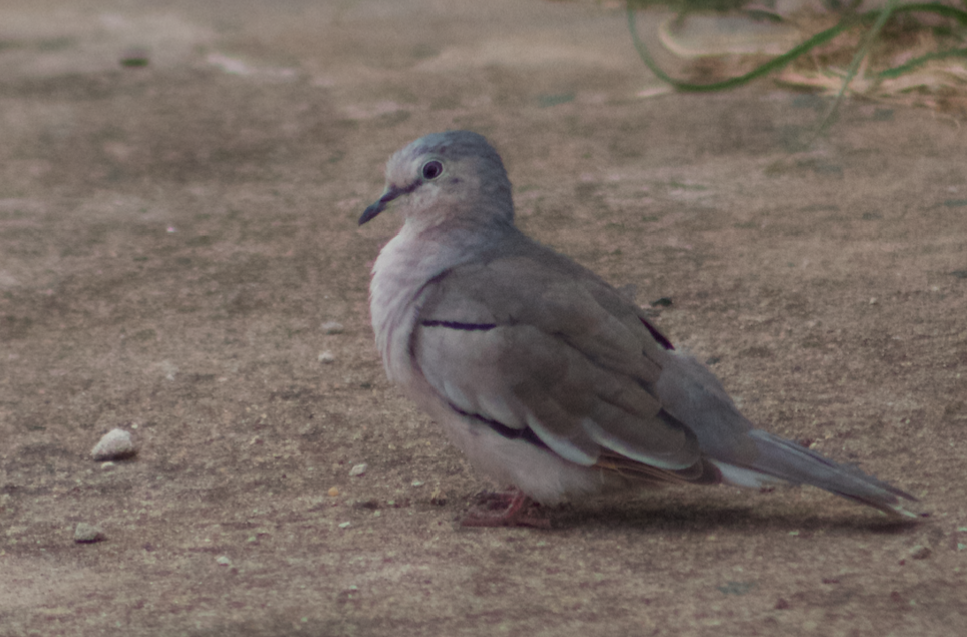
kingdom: Animalia
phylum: Chordata
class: Aves
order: Columbiformes
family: Columbidae
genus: Columbina
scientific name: Columbina picui
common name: Picui ground dove
